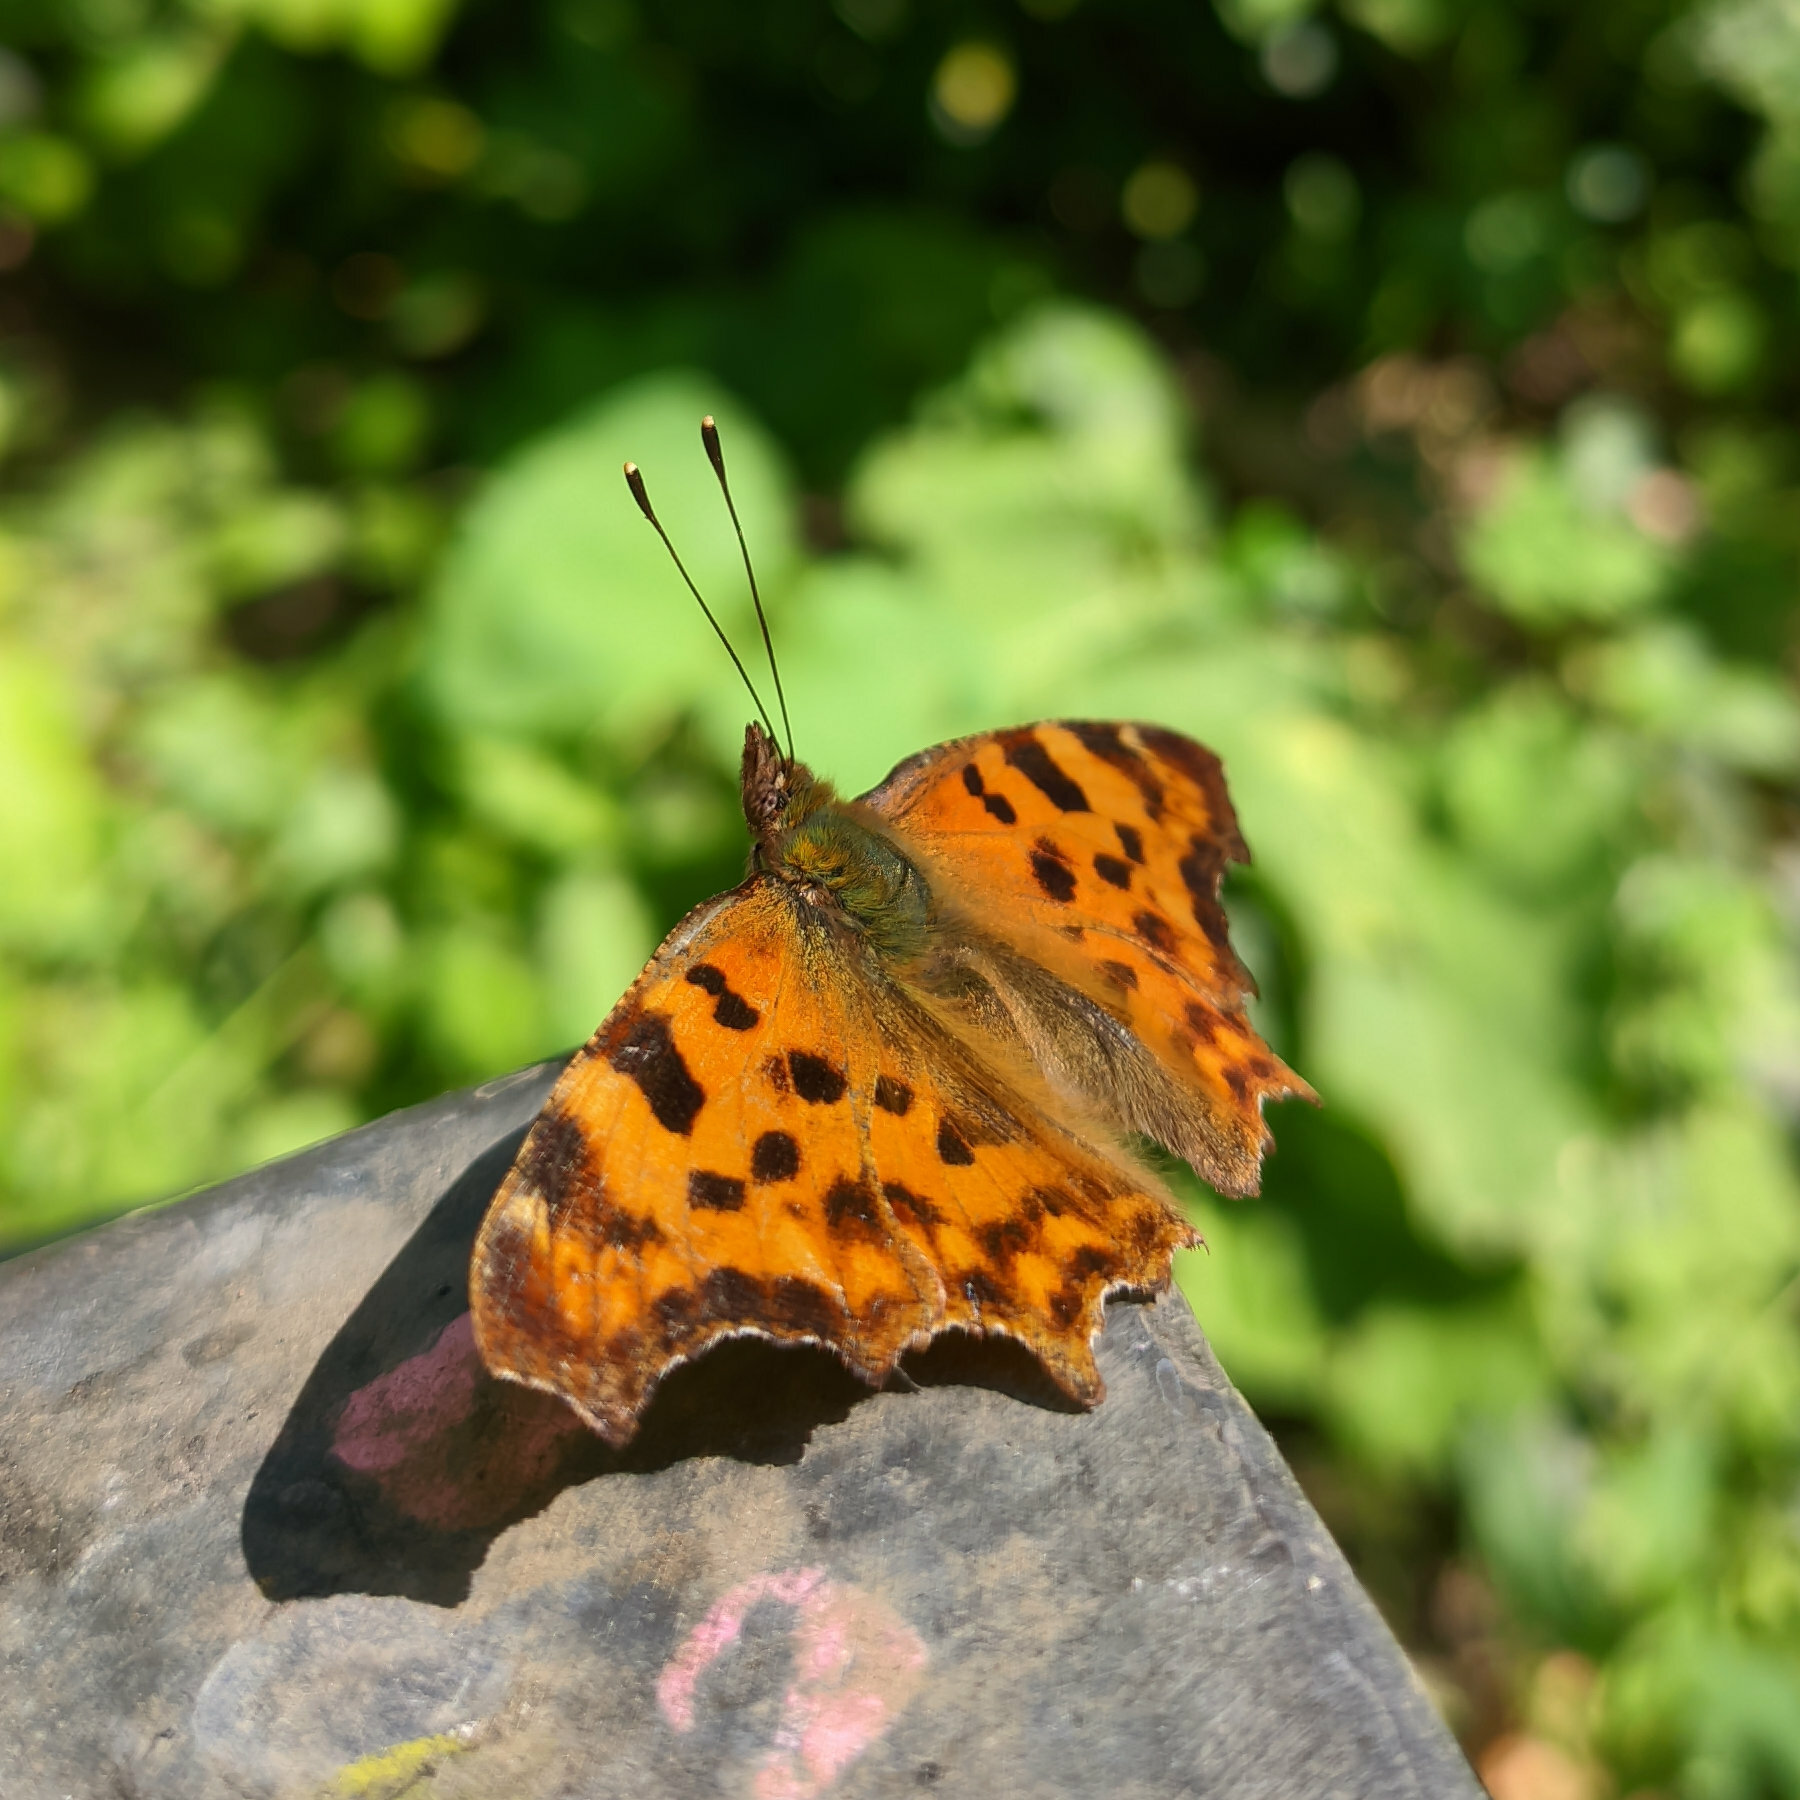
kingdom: Animalia
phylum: Arthropoda
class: Insecta
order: Lepidoptera
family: Nymphalidae
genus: Polygonia
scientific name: Polygonia c-album
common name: Comma
